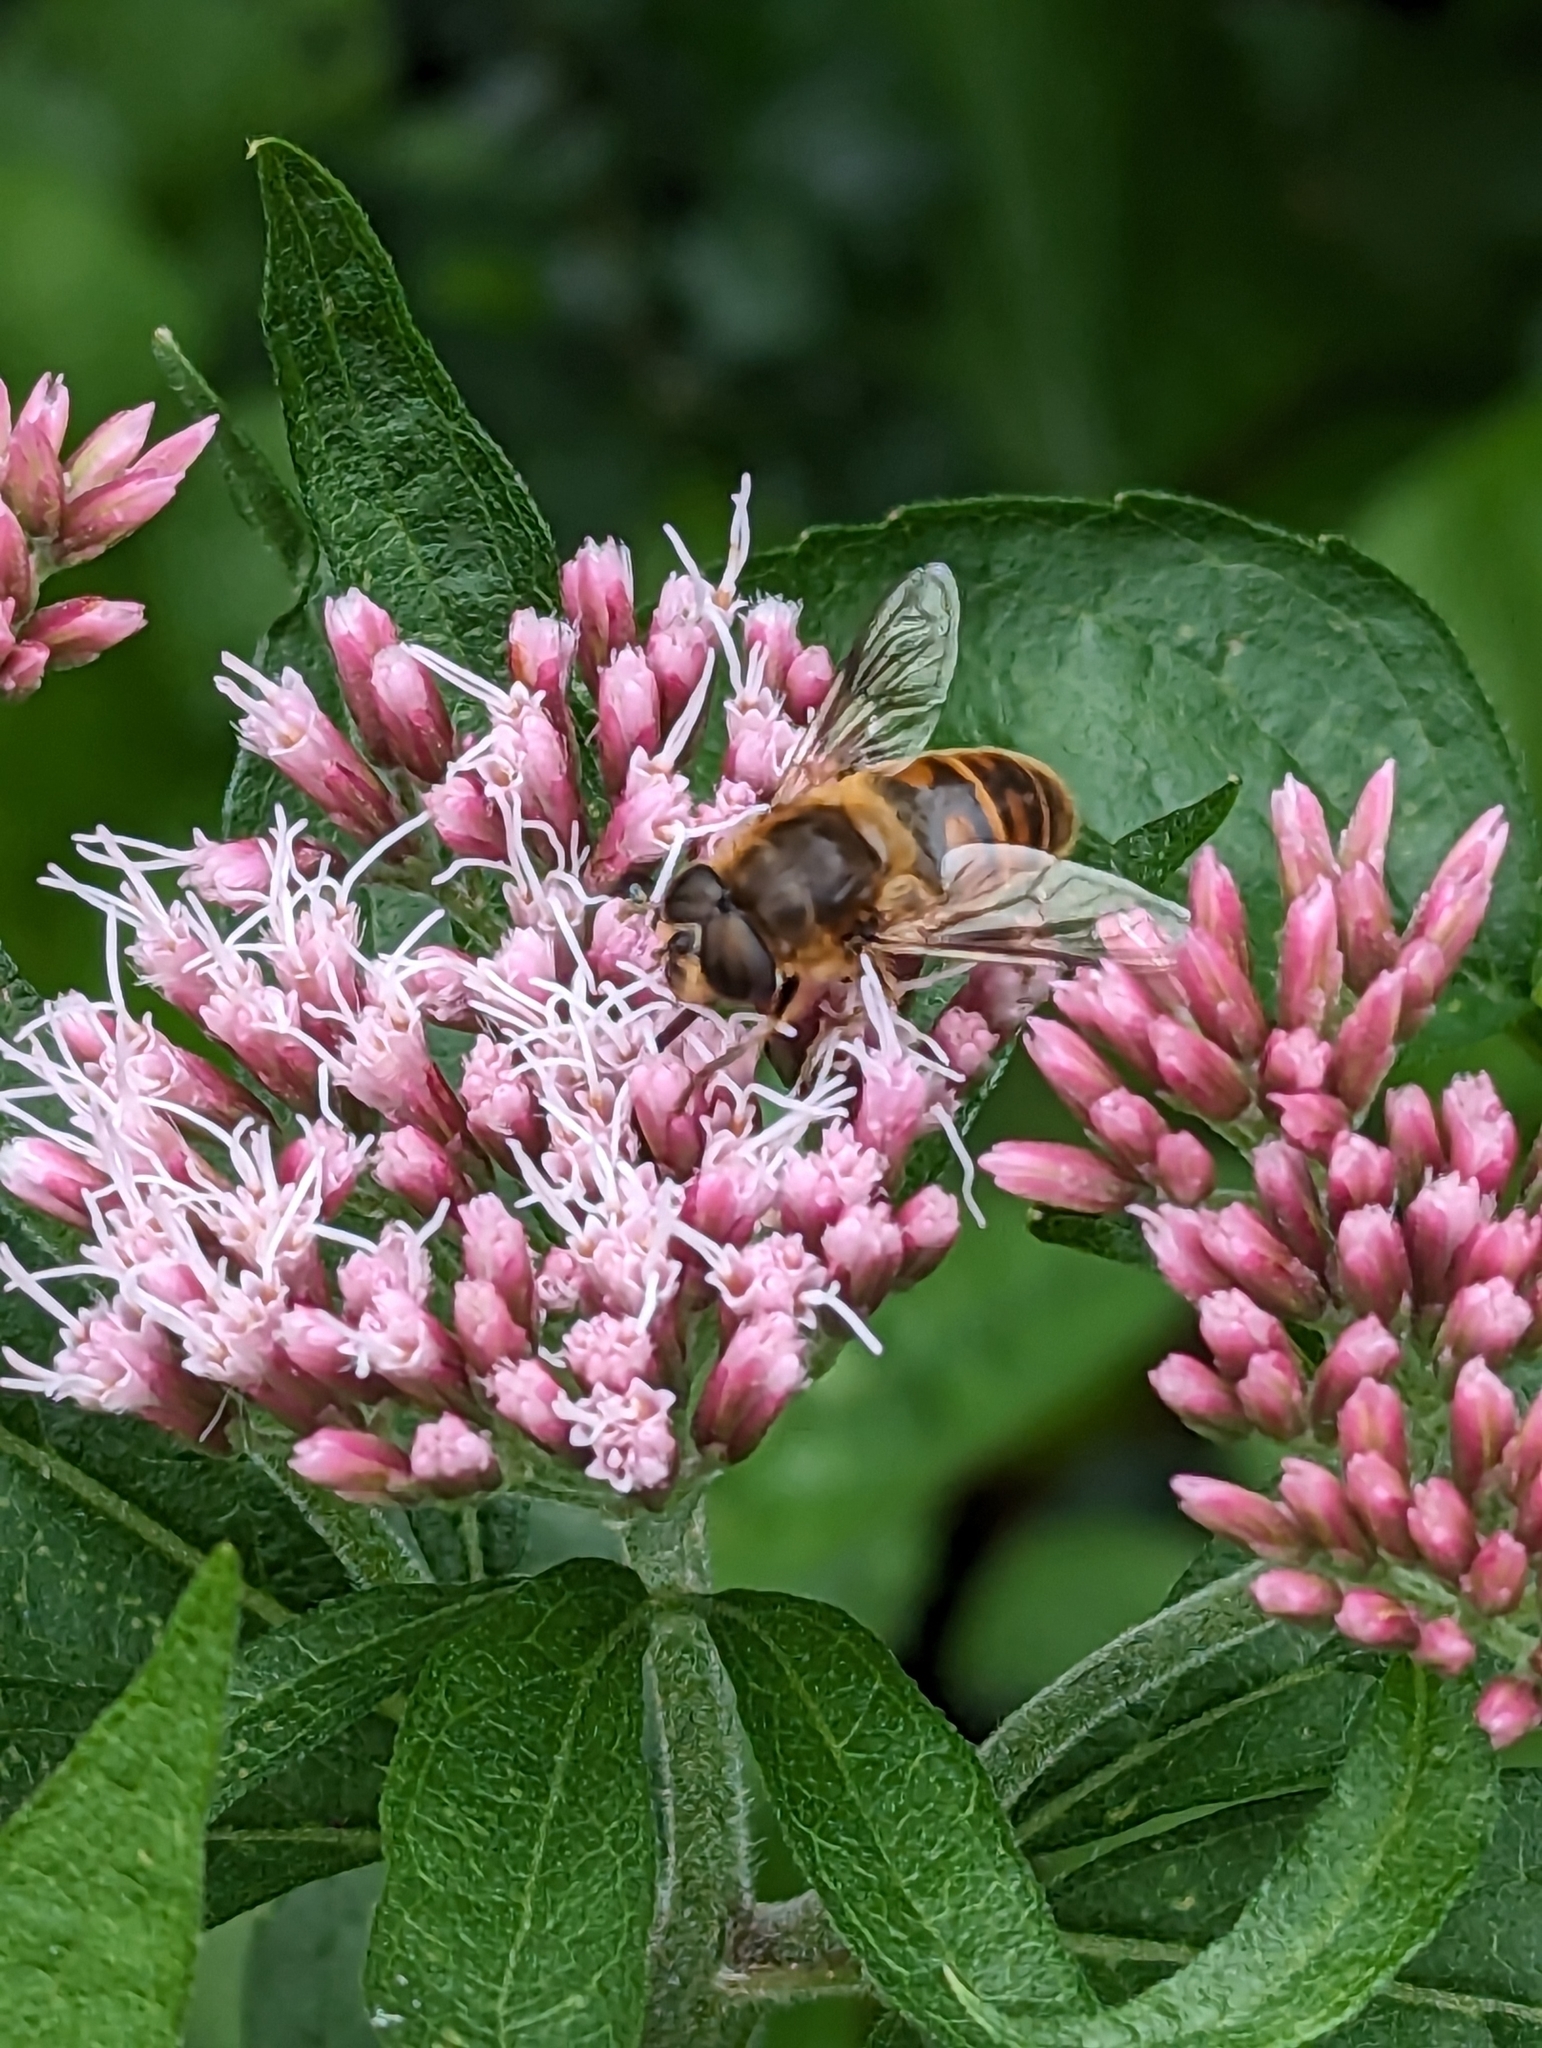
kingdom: Animalia
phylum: Arthropoda
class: Insecta
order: Diptera
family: Syrphidae
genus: Eristalis
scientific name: Eristalis tenax
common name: Drone fly
